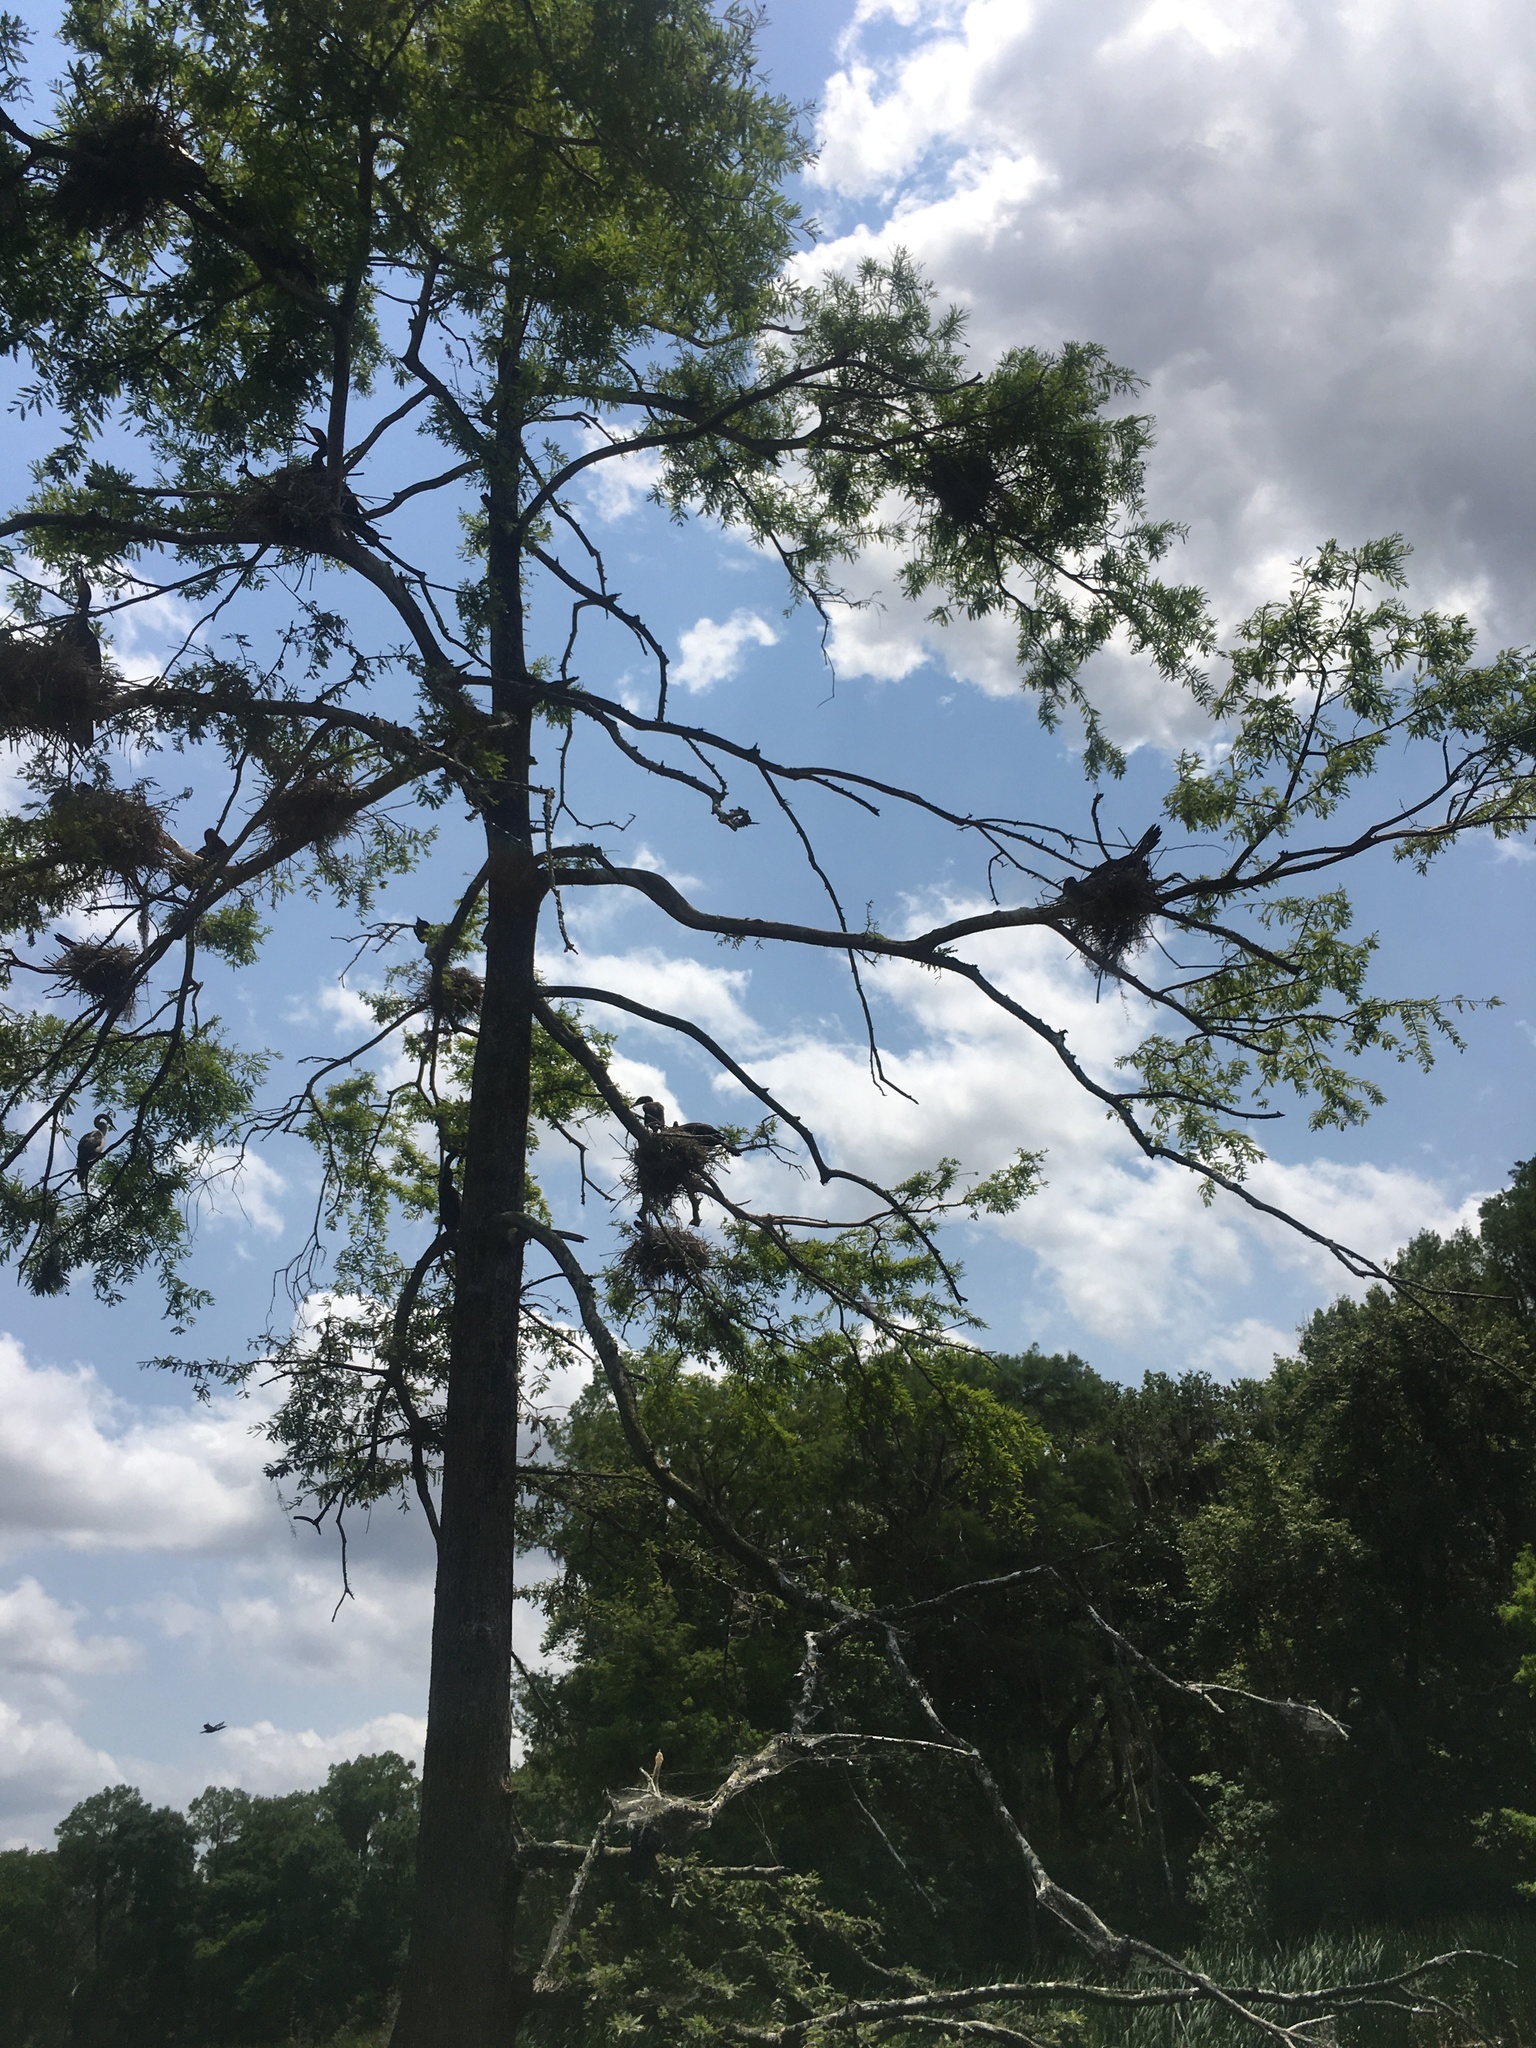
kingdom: Animalia
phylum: Chordata
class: Aves
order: Suliformes
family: Phalacrocoracidae
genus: Phalacrocorax
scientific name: Phalacrocorax auritus
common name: Double-crested cormorant
